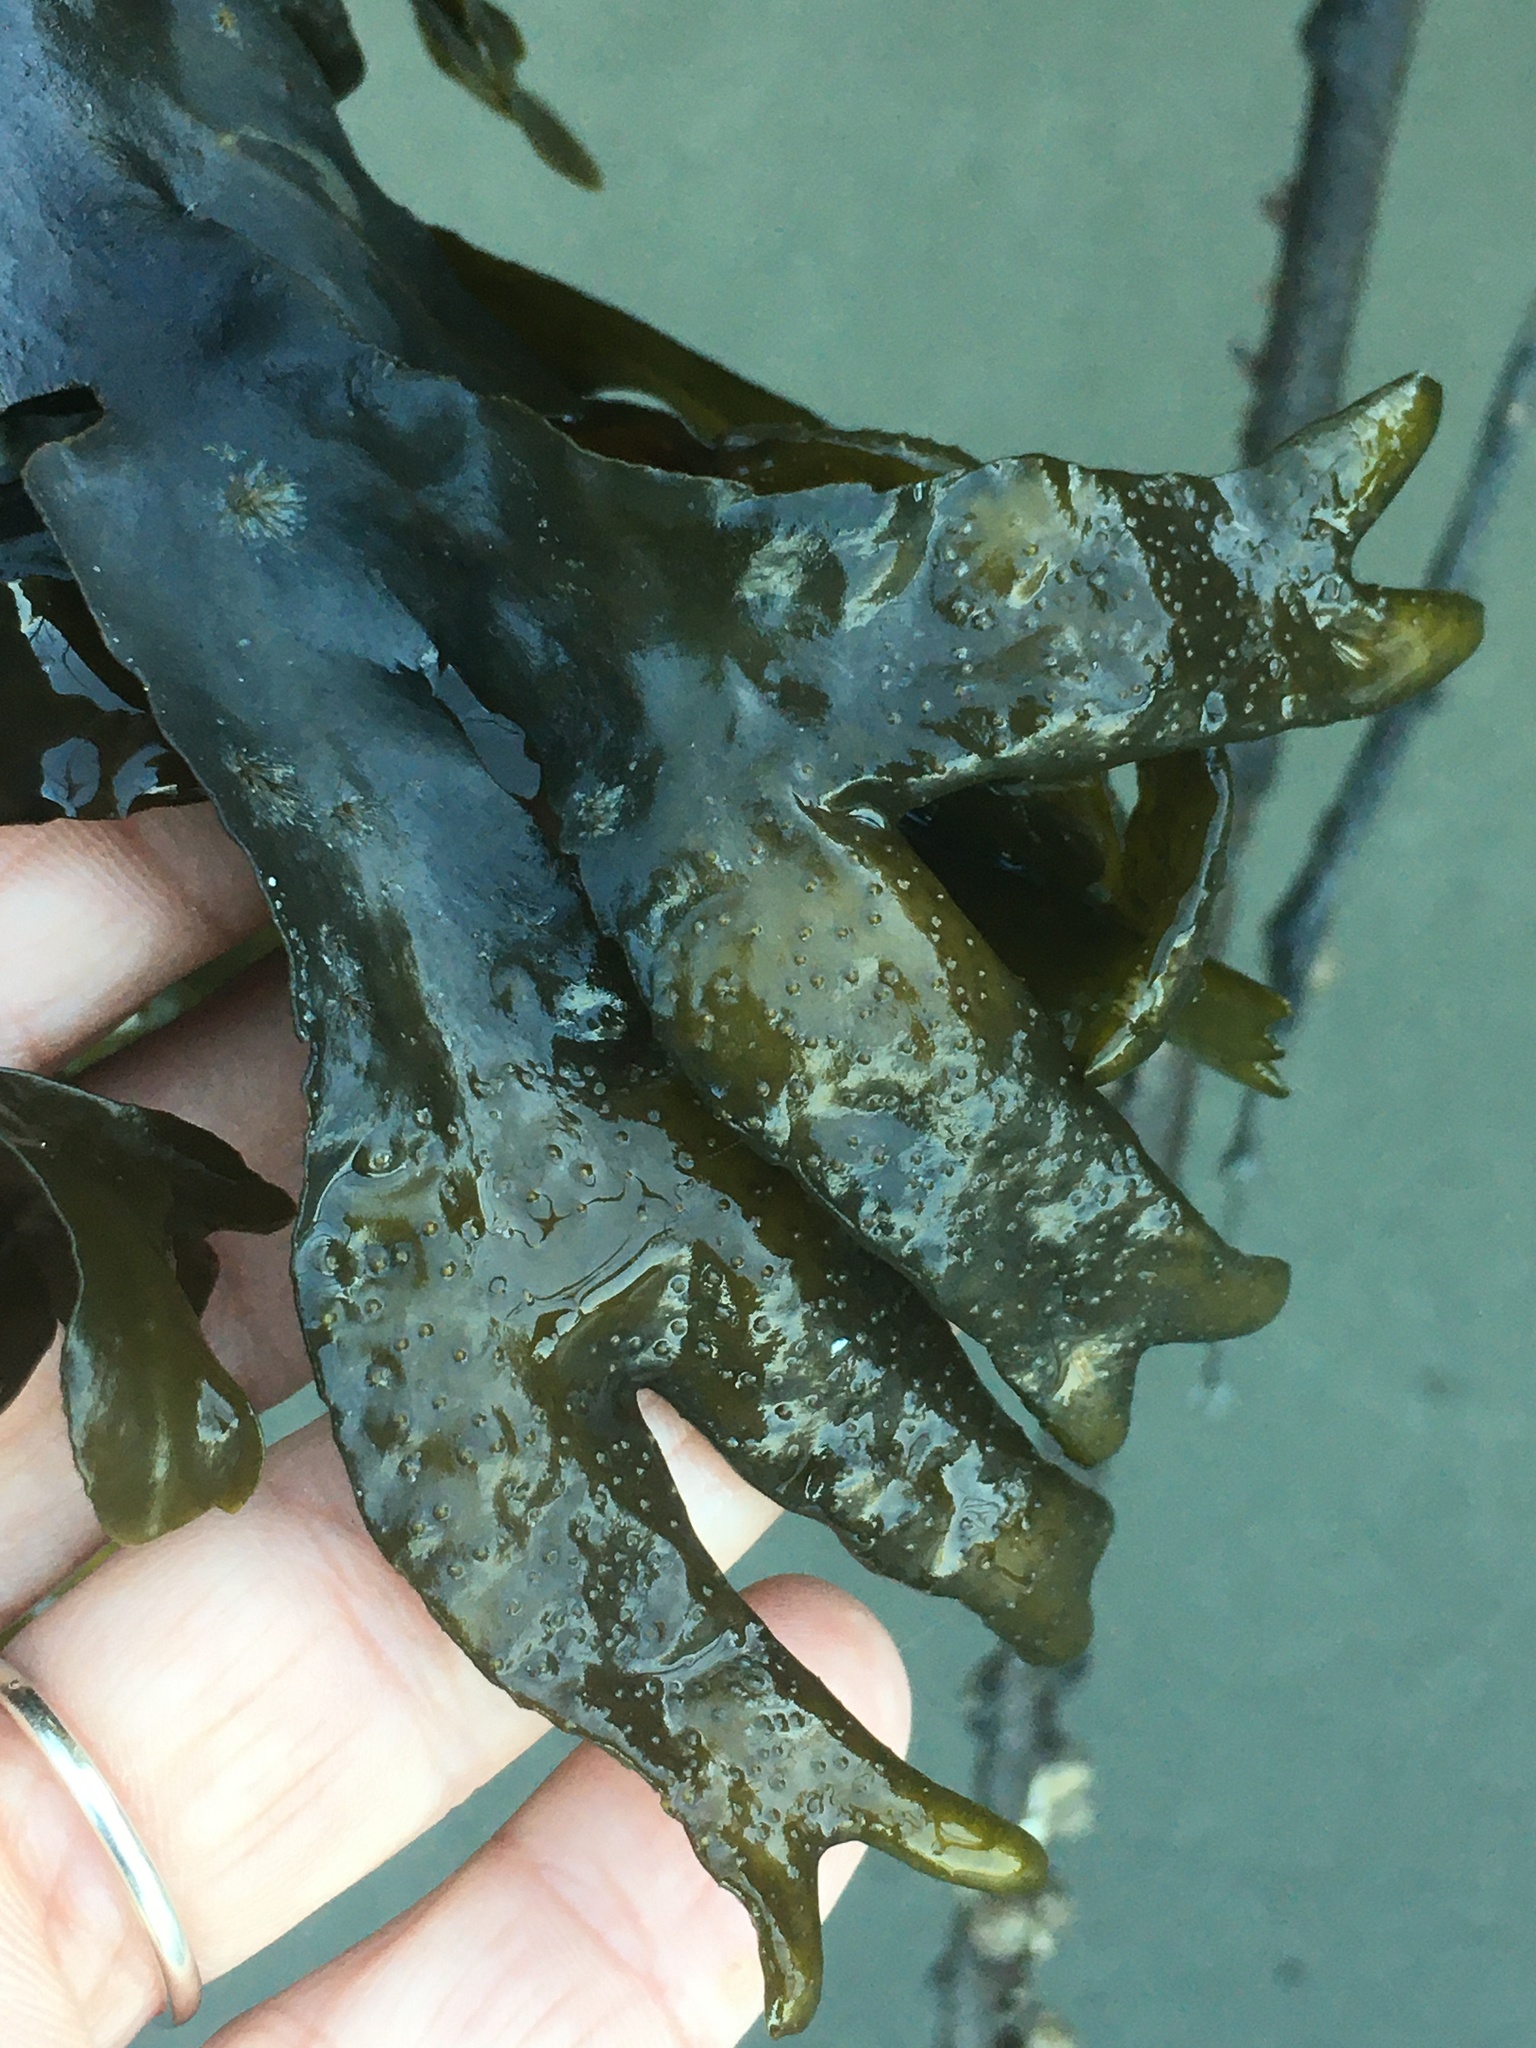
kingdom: Chromista
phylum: Ochrophyta
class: Phaeophyceae
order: Fucales
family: Fucaceae
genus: Fucus
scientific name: Fucus distichus
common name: Rockweed
